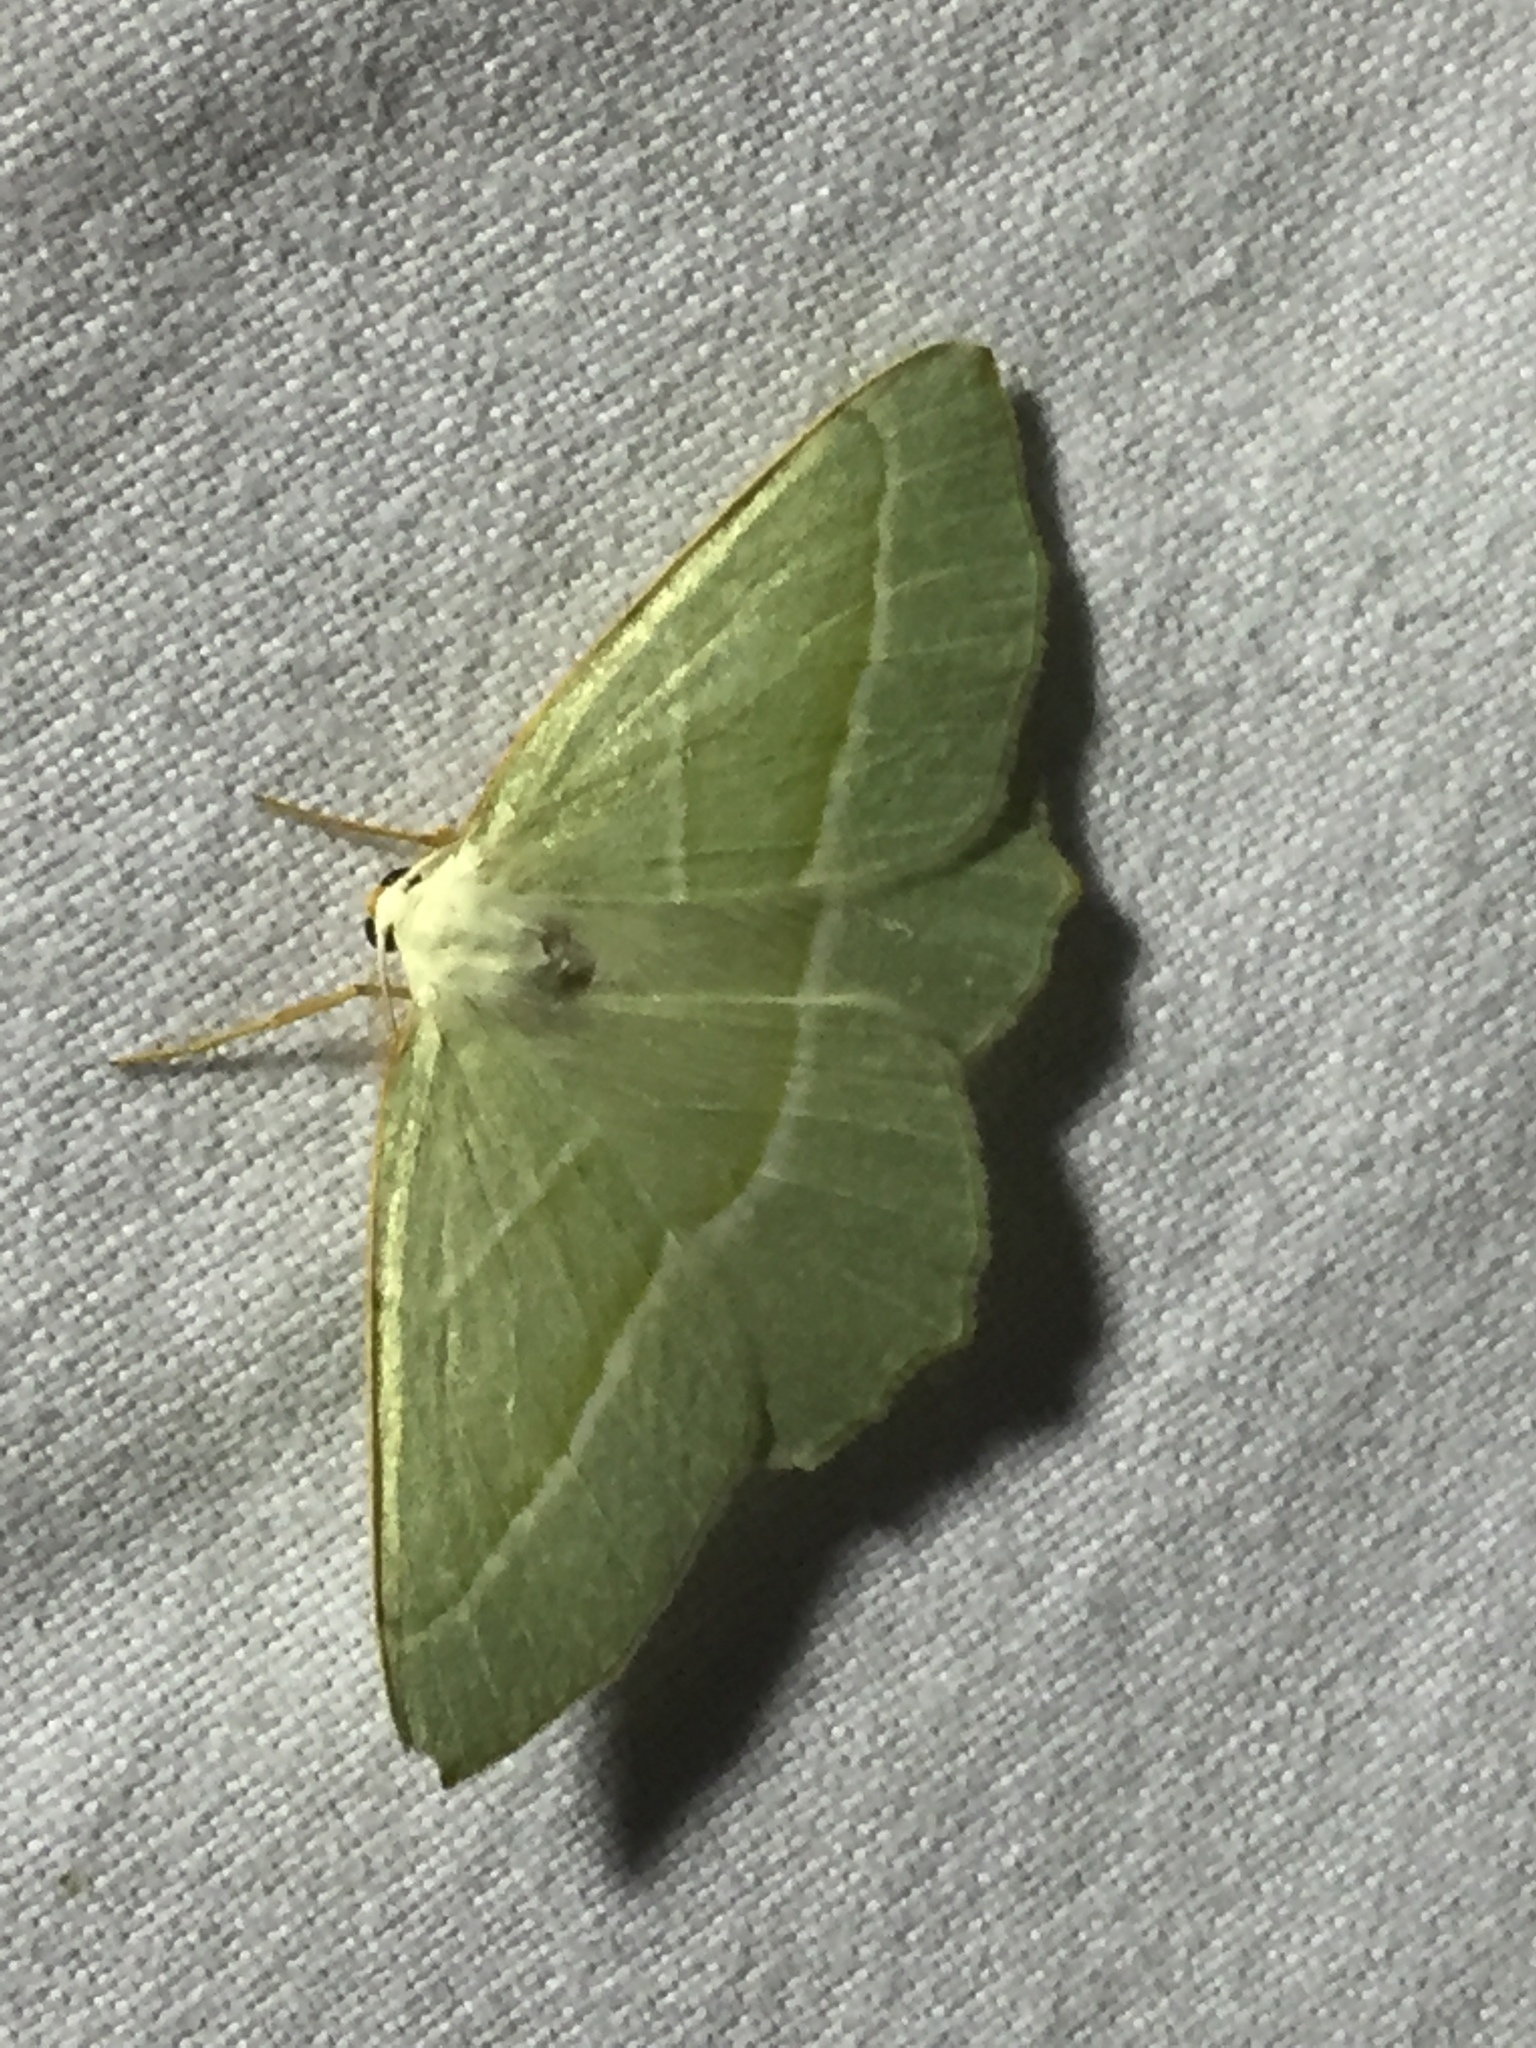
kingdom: Animalia
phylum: Arthropoda
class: Insecta
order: Lepidoptera
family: Geometridae
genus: Campaea
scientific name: Campaea margaritaria
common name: Light emerald
